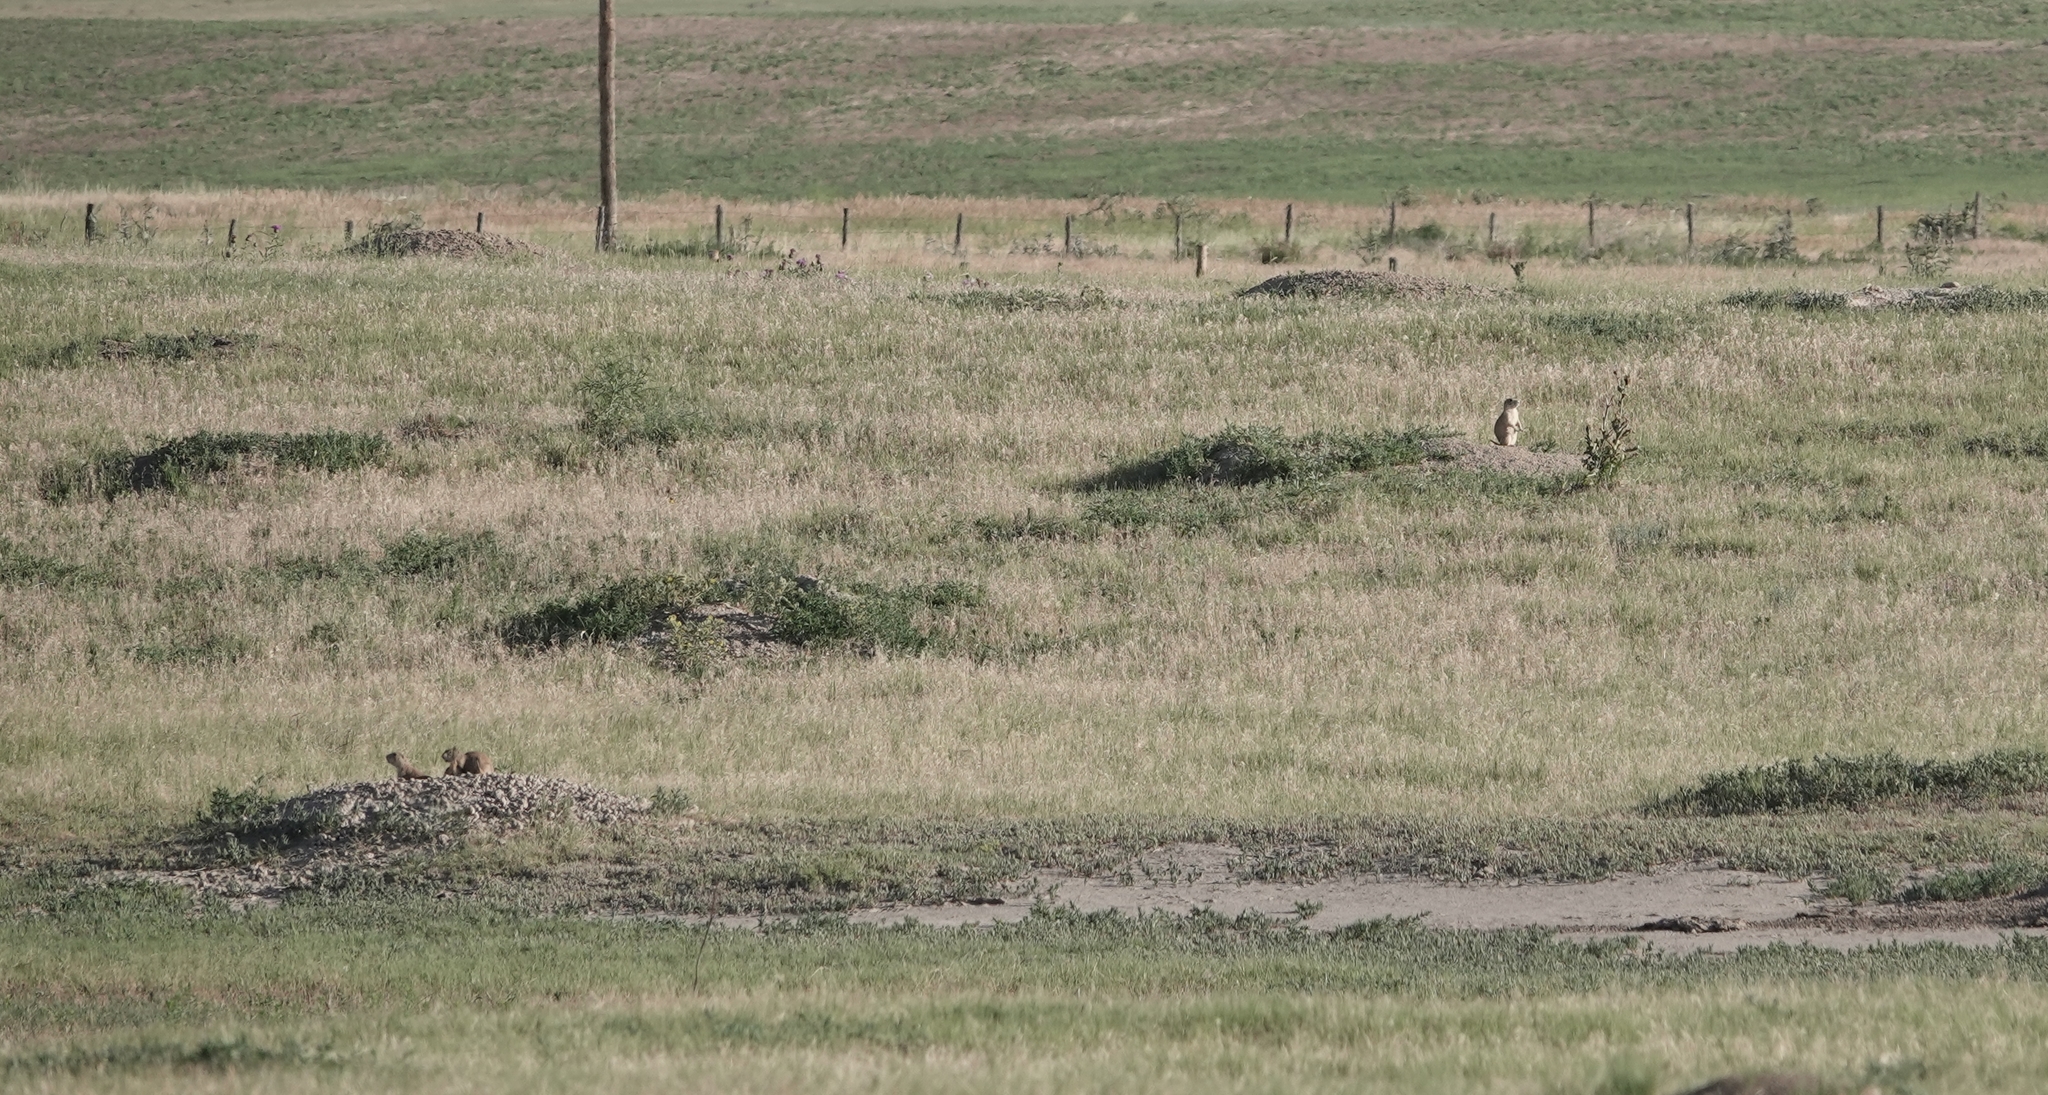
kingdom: Animalia
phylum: Chordata
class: Mammalia
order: Rodentia
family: Sciuridae
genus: Cynomys
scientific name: Cynomys ludovicianus
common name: Black-tailed prairie dog
